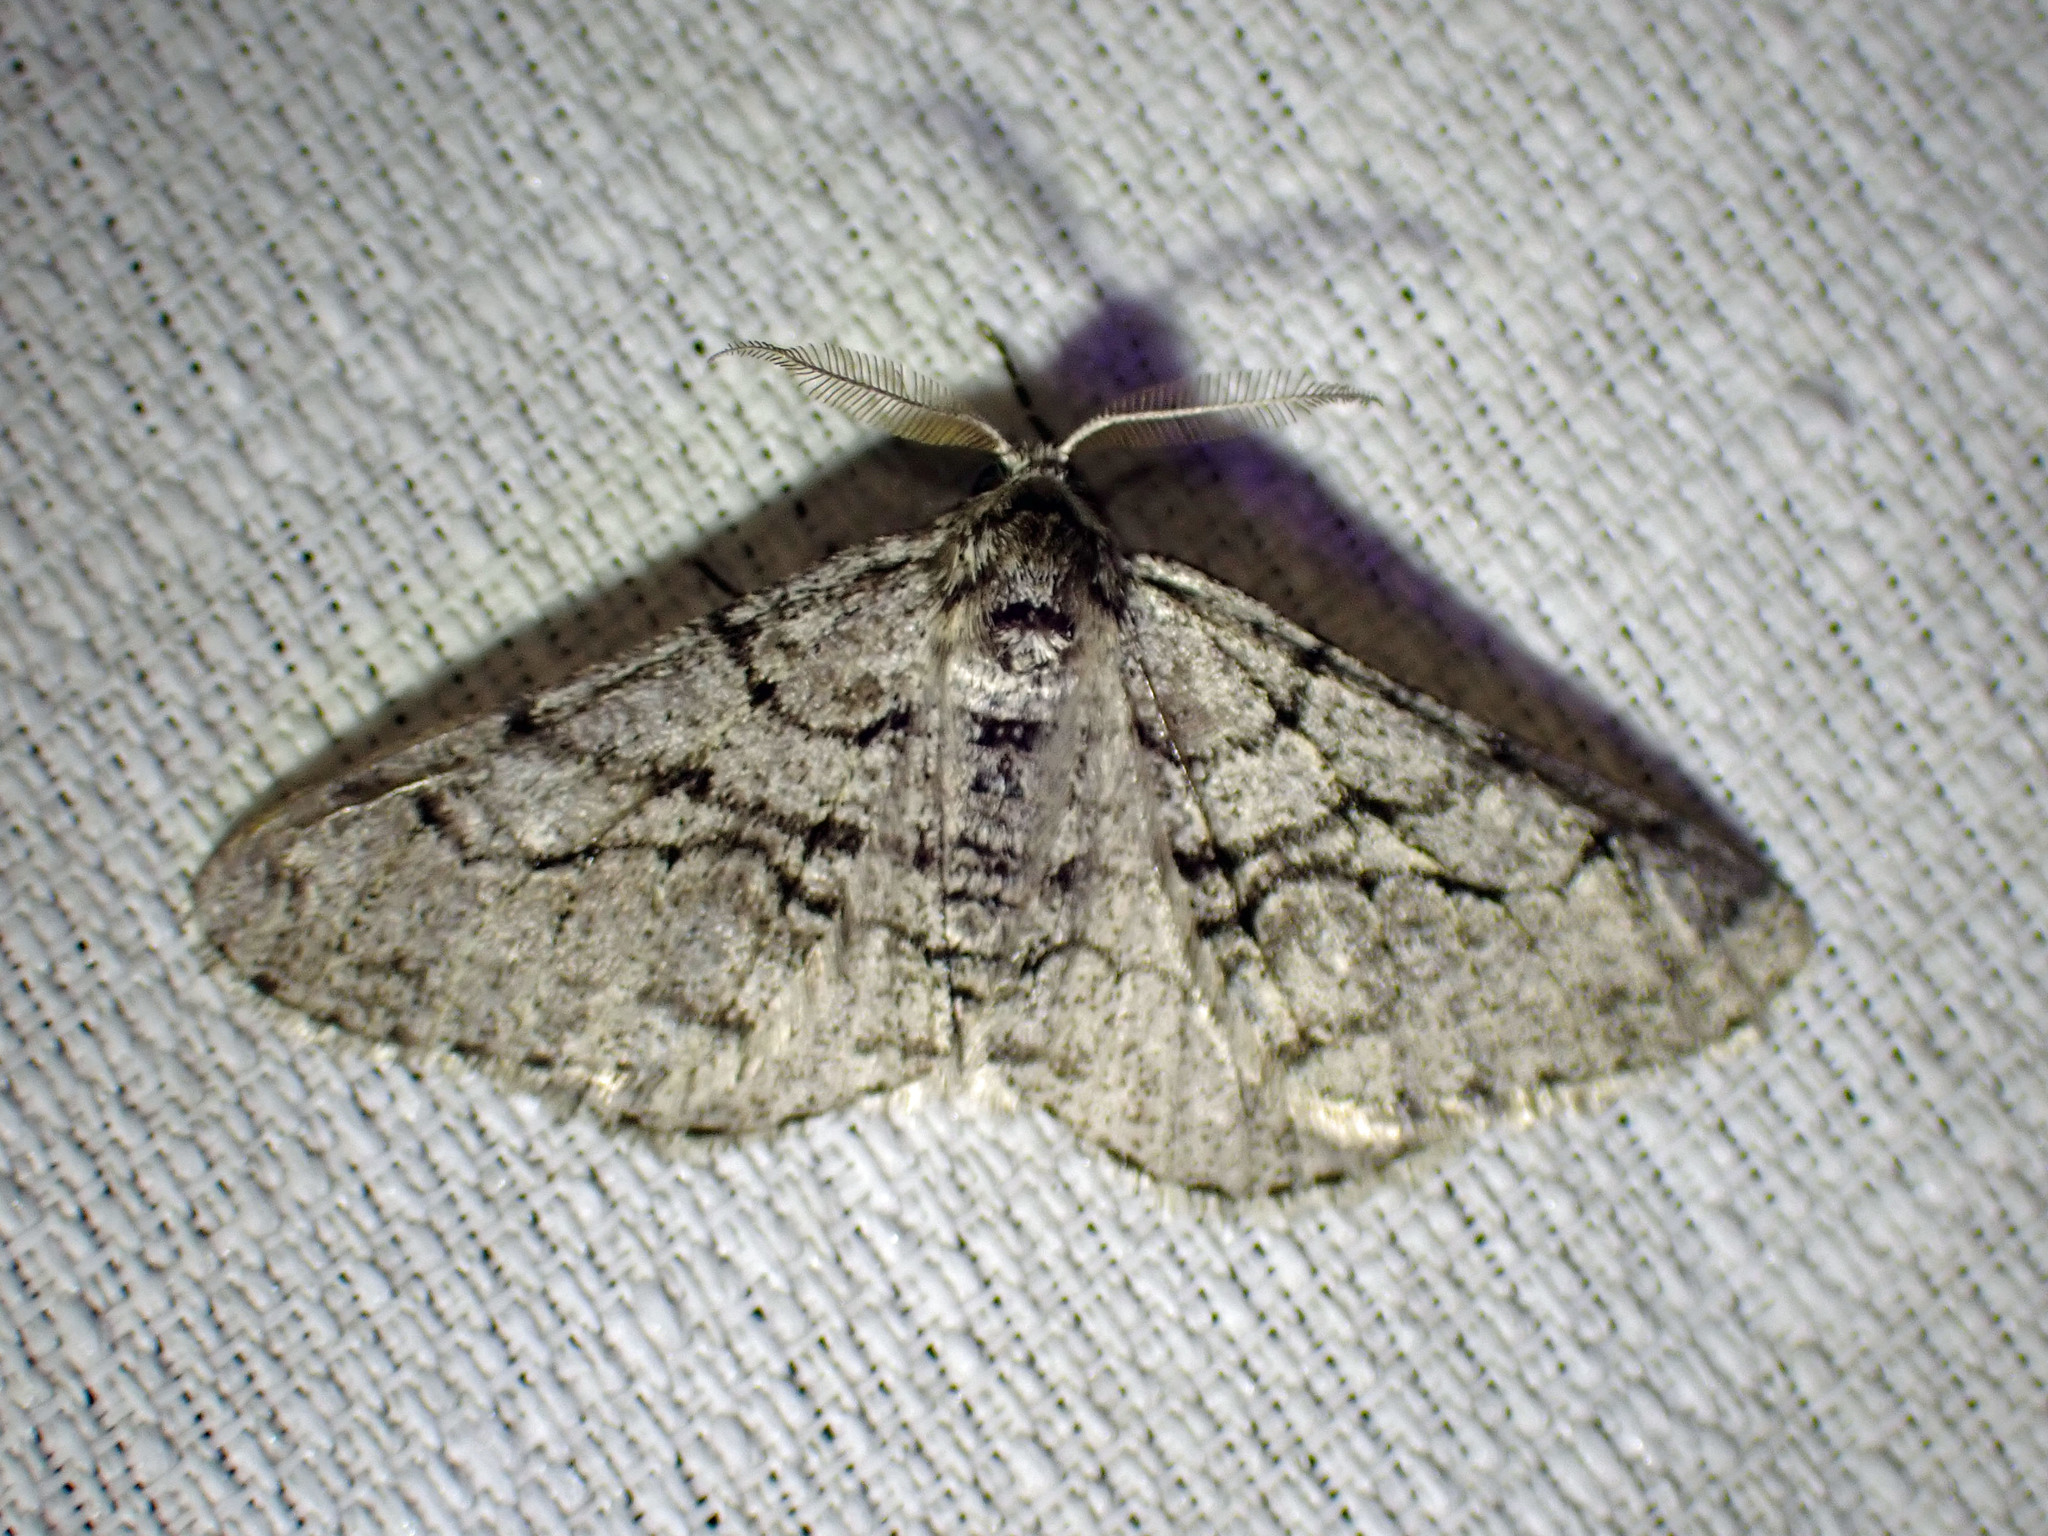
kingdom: Animalia
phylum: Arthropoda
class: Insecta
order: Lepidoptera
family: Geometridae
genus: Phigalia
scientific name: Phigalia titea
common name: Spiny looper
